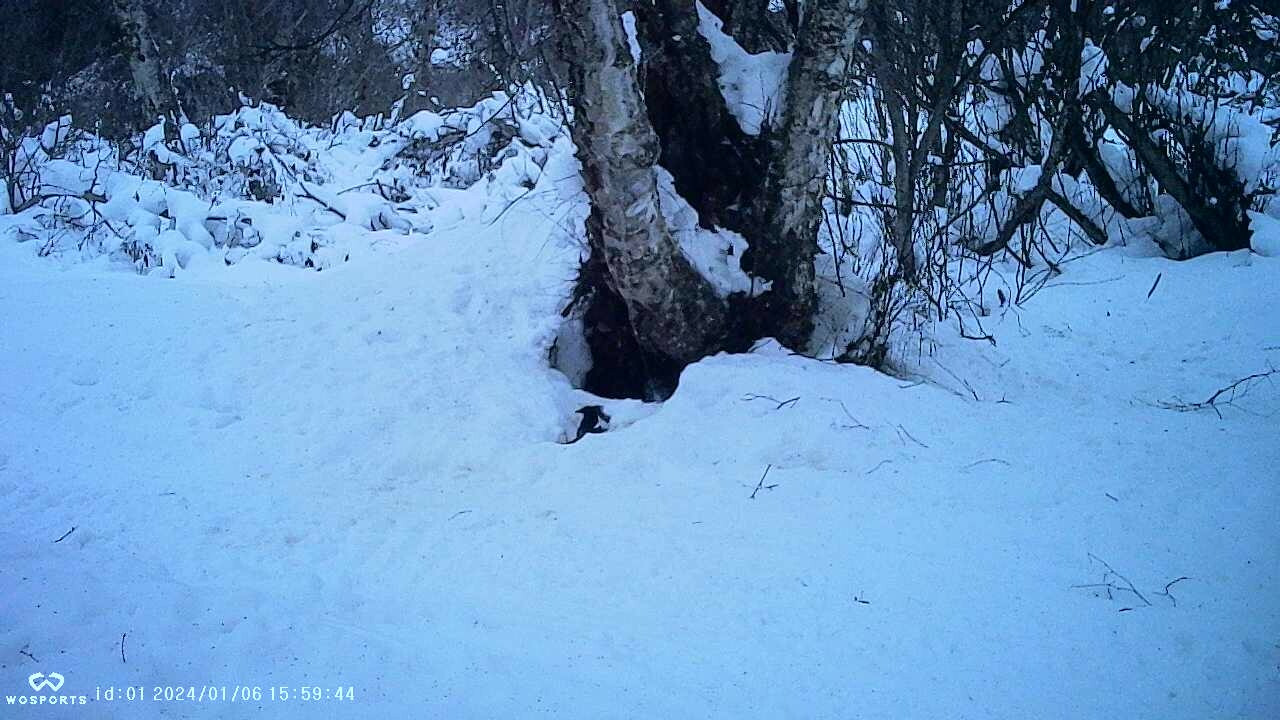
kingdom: Animalia
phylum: Chordata
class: Aves
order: Passeriformes
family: Corvidae
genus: Pica
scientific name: Pica hudsonia
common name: Black-billed magpie
